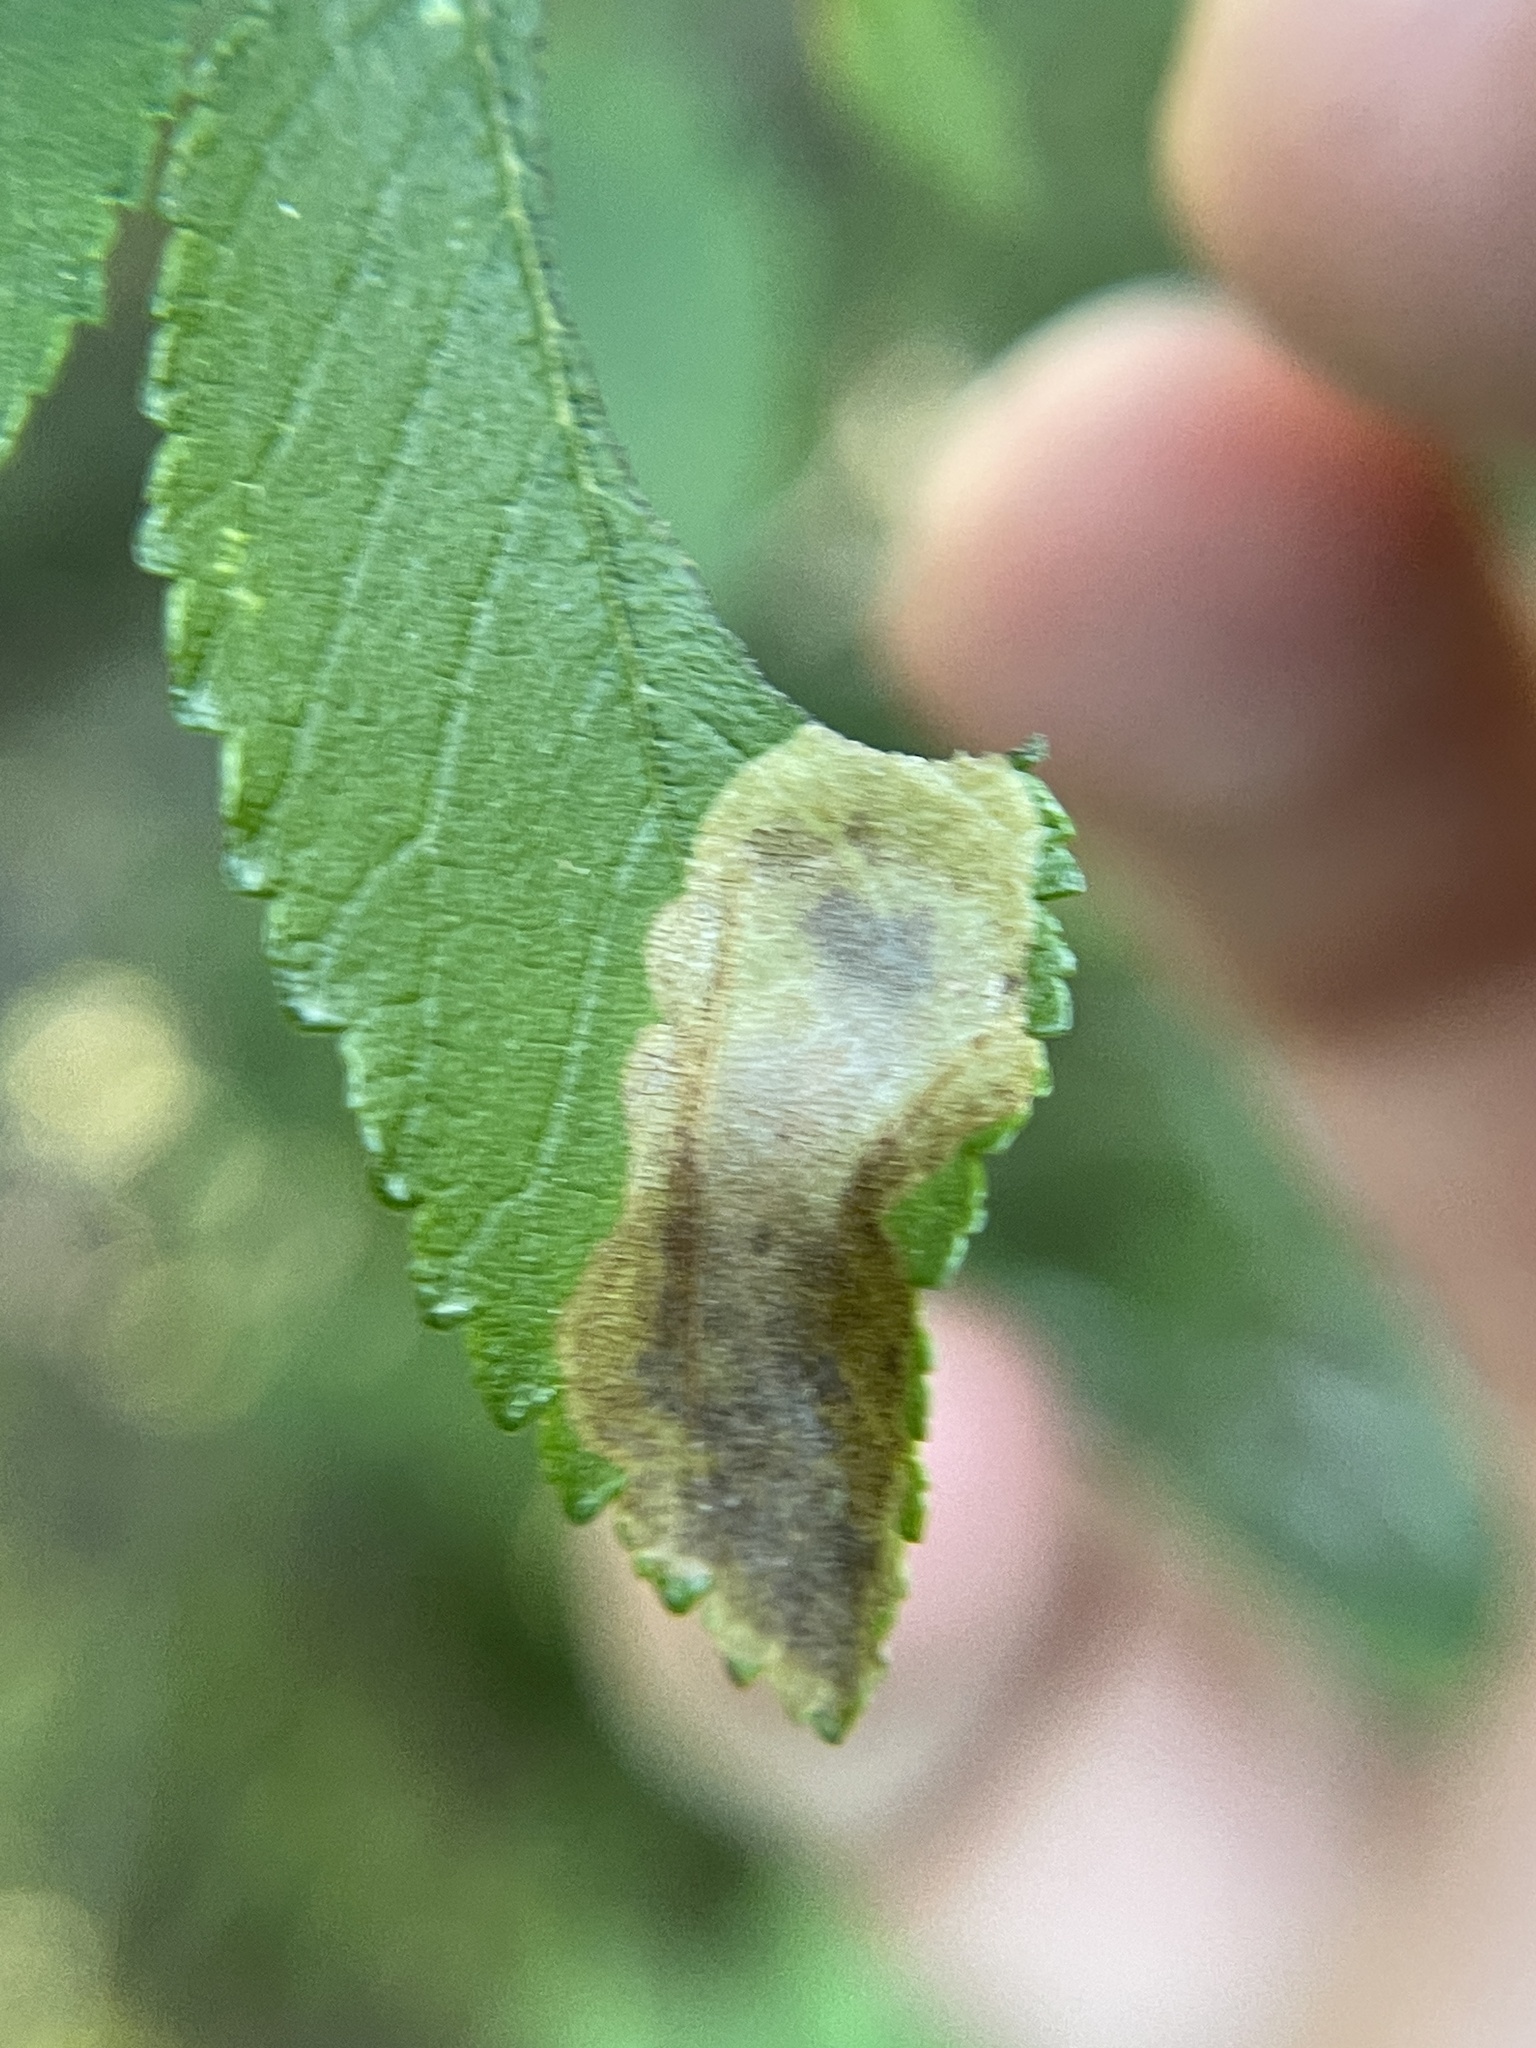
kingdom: Animalia
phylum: Arthropoda
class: Insecta
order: Lepidoptera
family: Gracillariidae
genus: Cameraria
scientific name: Cameraria ulmella
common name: Elm leafminer
